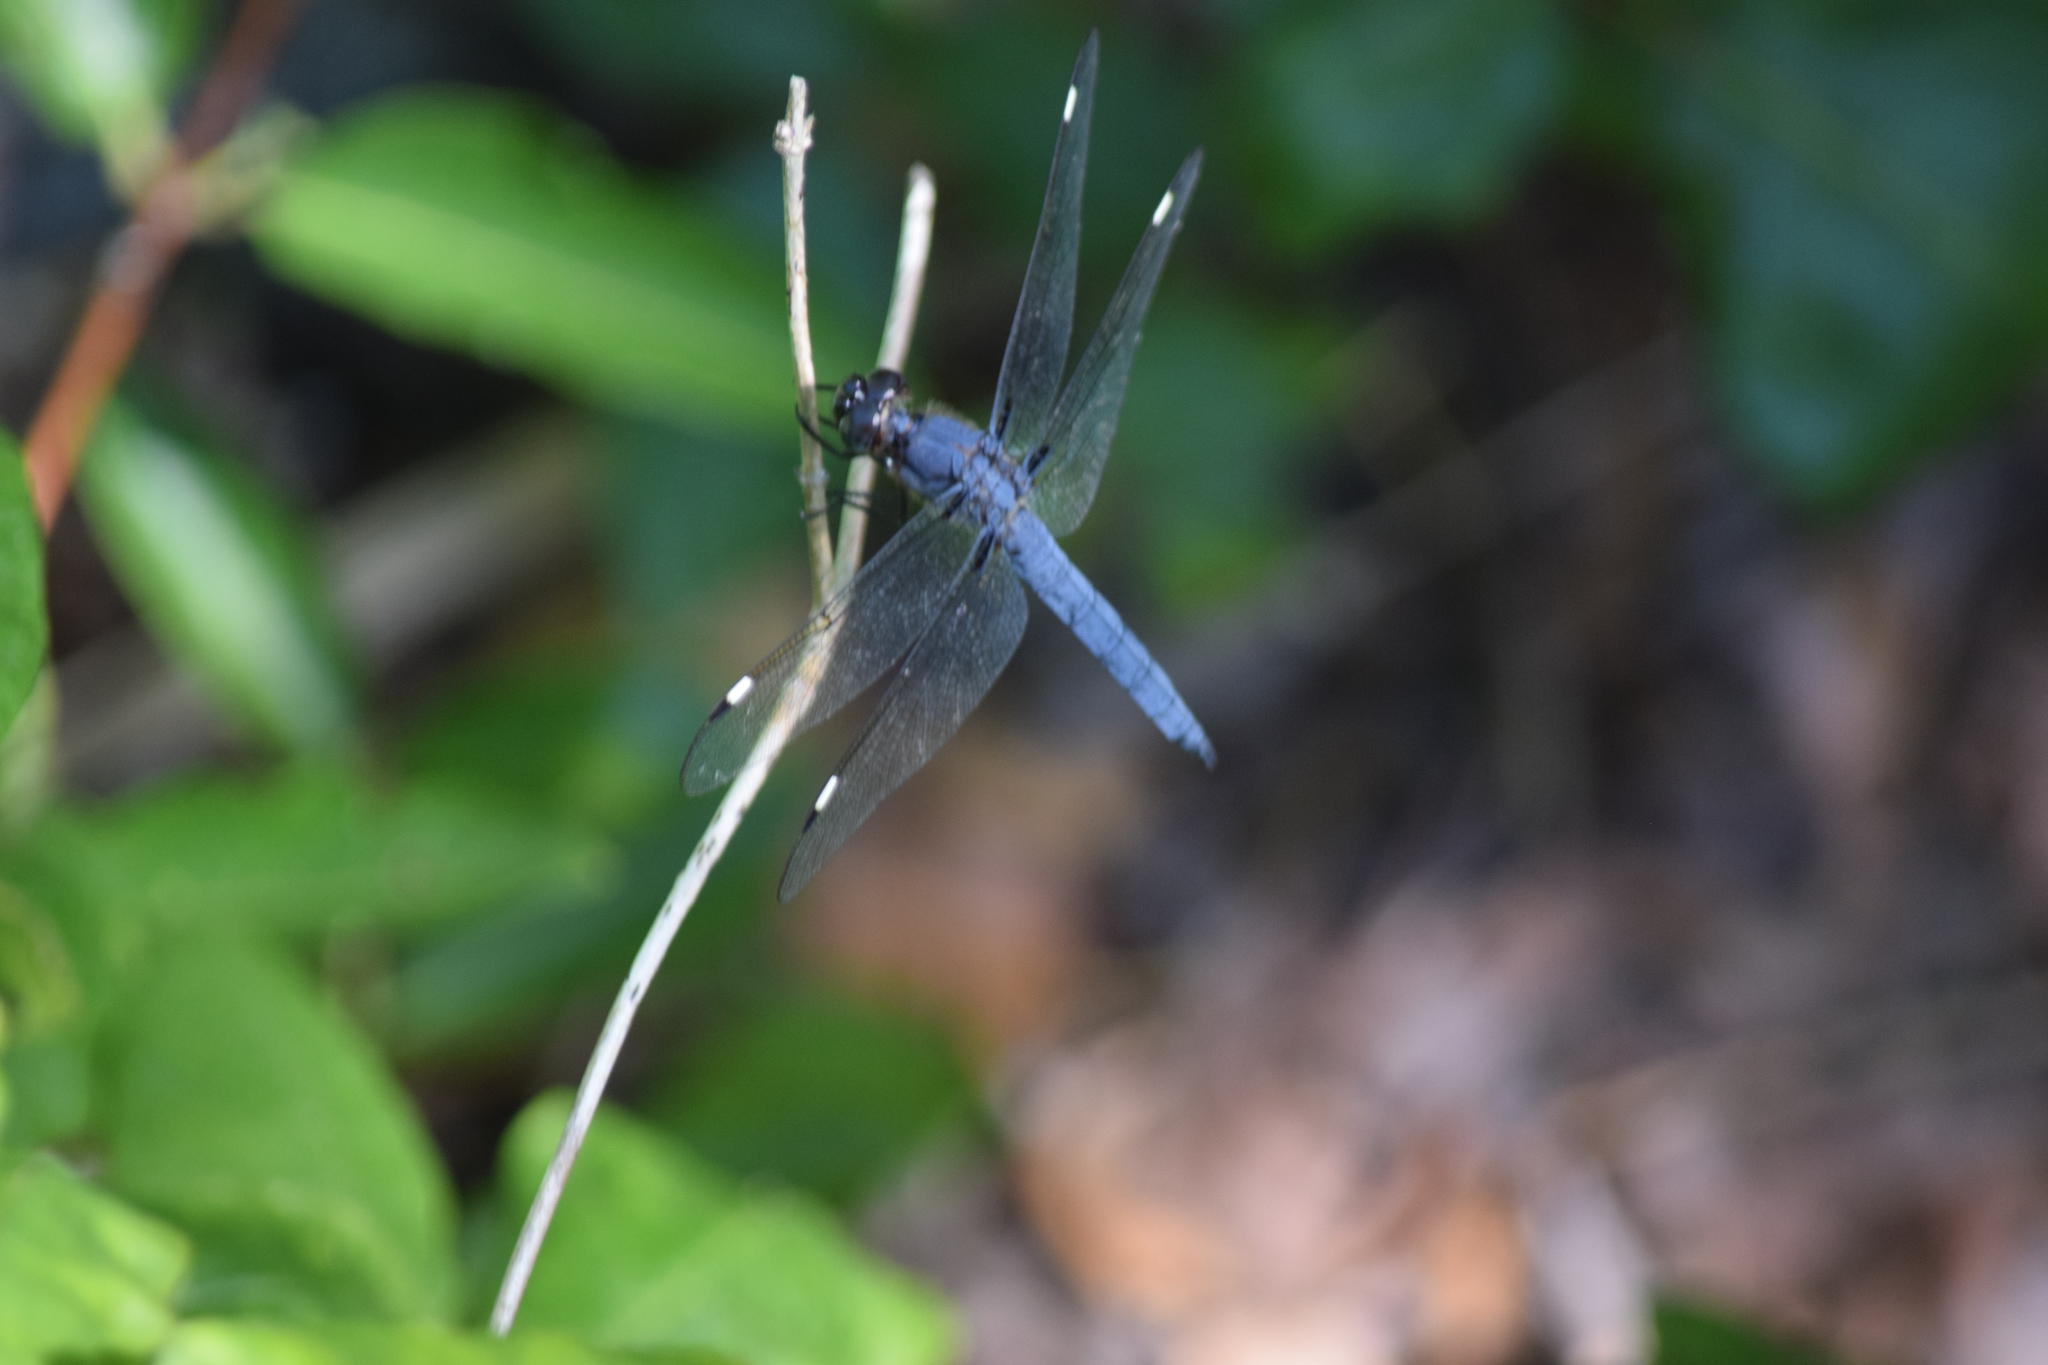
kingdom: Animalia
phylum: Arthropoda
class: Insecta
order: Odonata
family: Libellulidae
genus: Libellula
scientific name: Libellula cyanea
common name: Spangled skimmer
